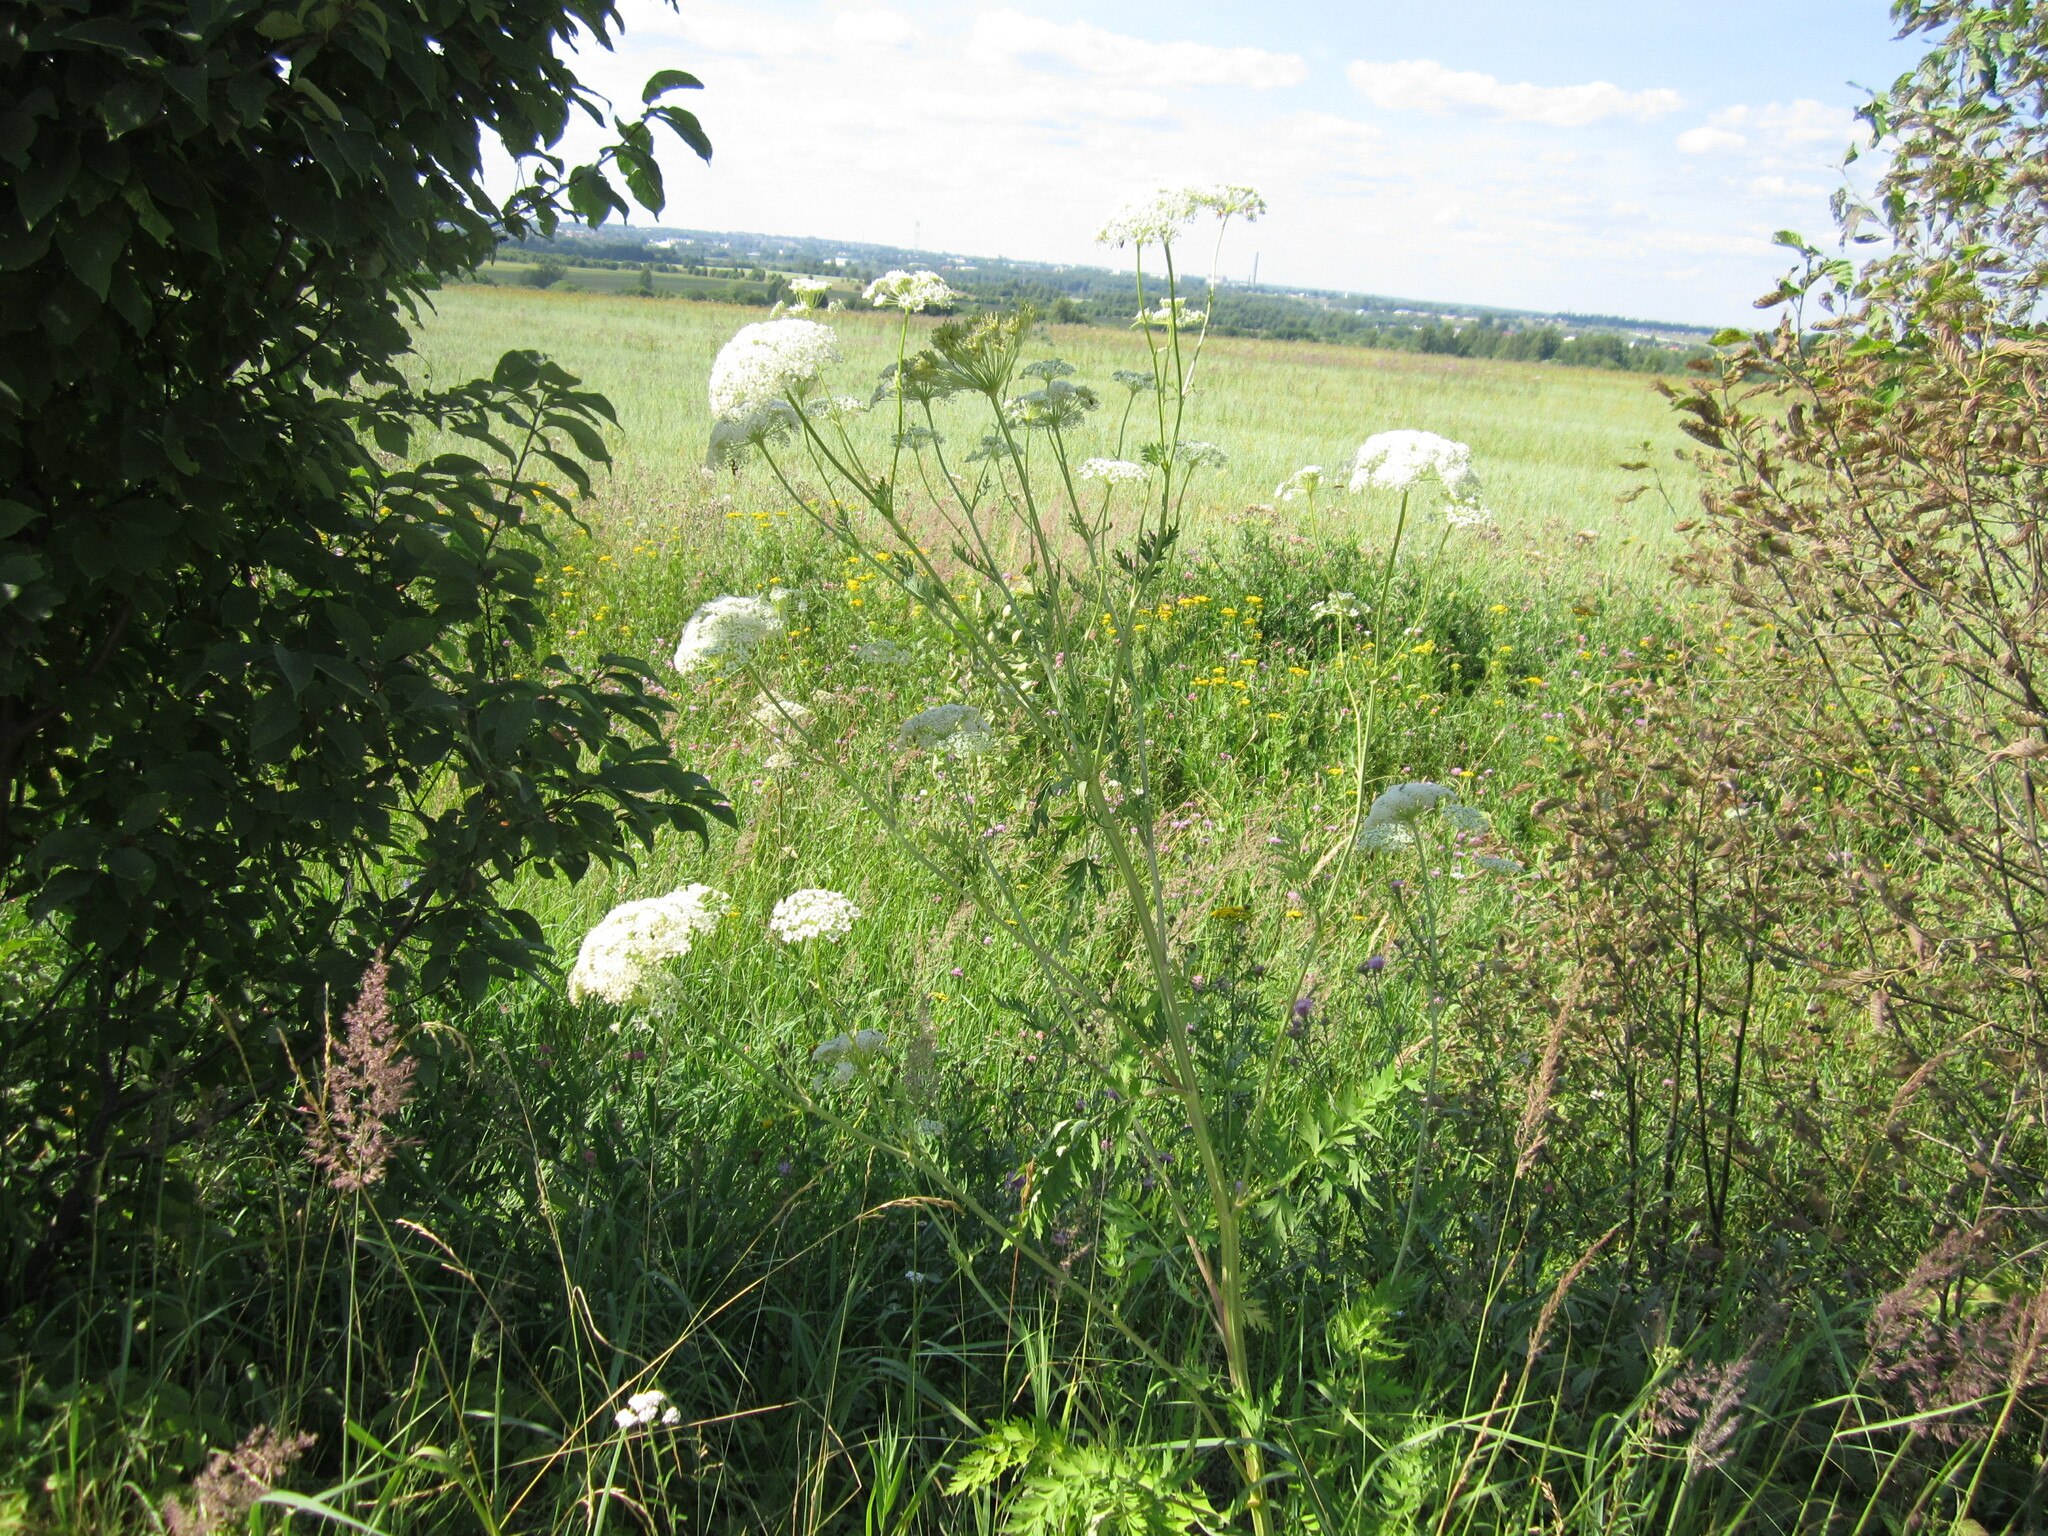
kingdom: Plantae
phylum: Tracheophyta
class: Magnoliopsida
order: Apiales
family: Apiaceae
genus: Seseli
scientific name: Seseli libanotis
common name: Mooncarrot
